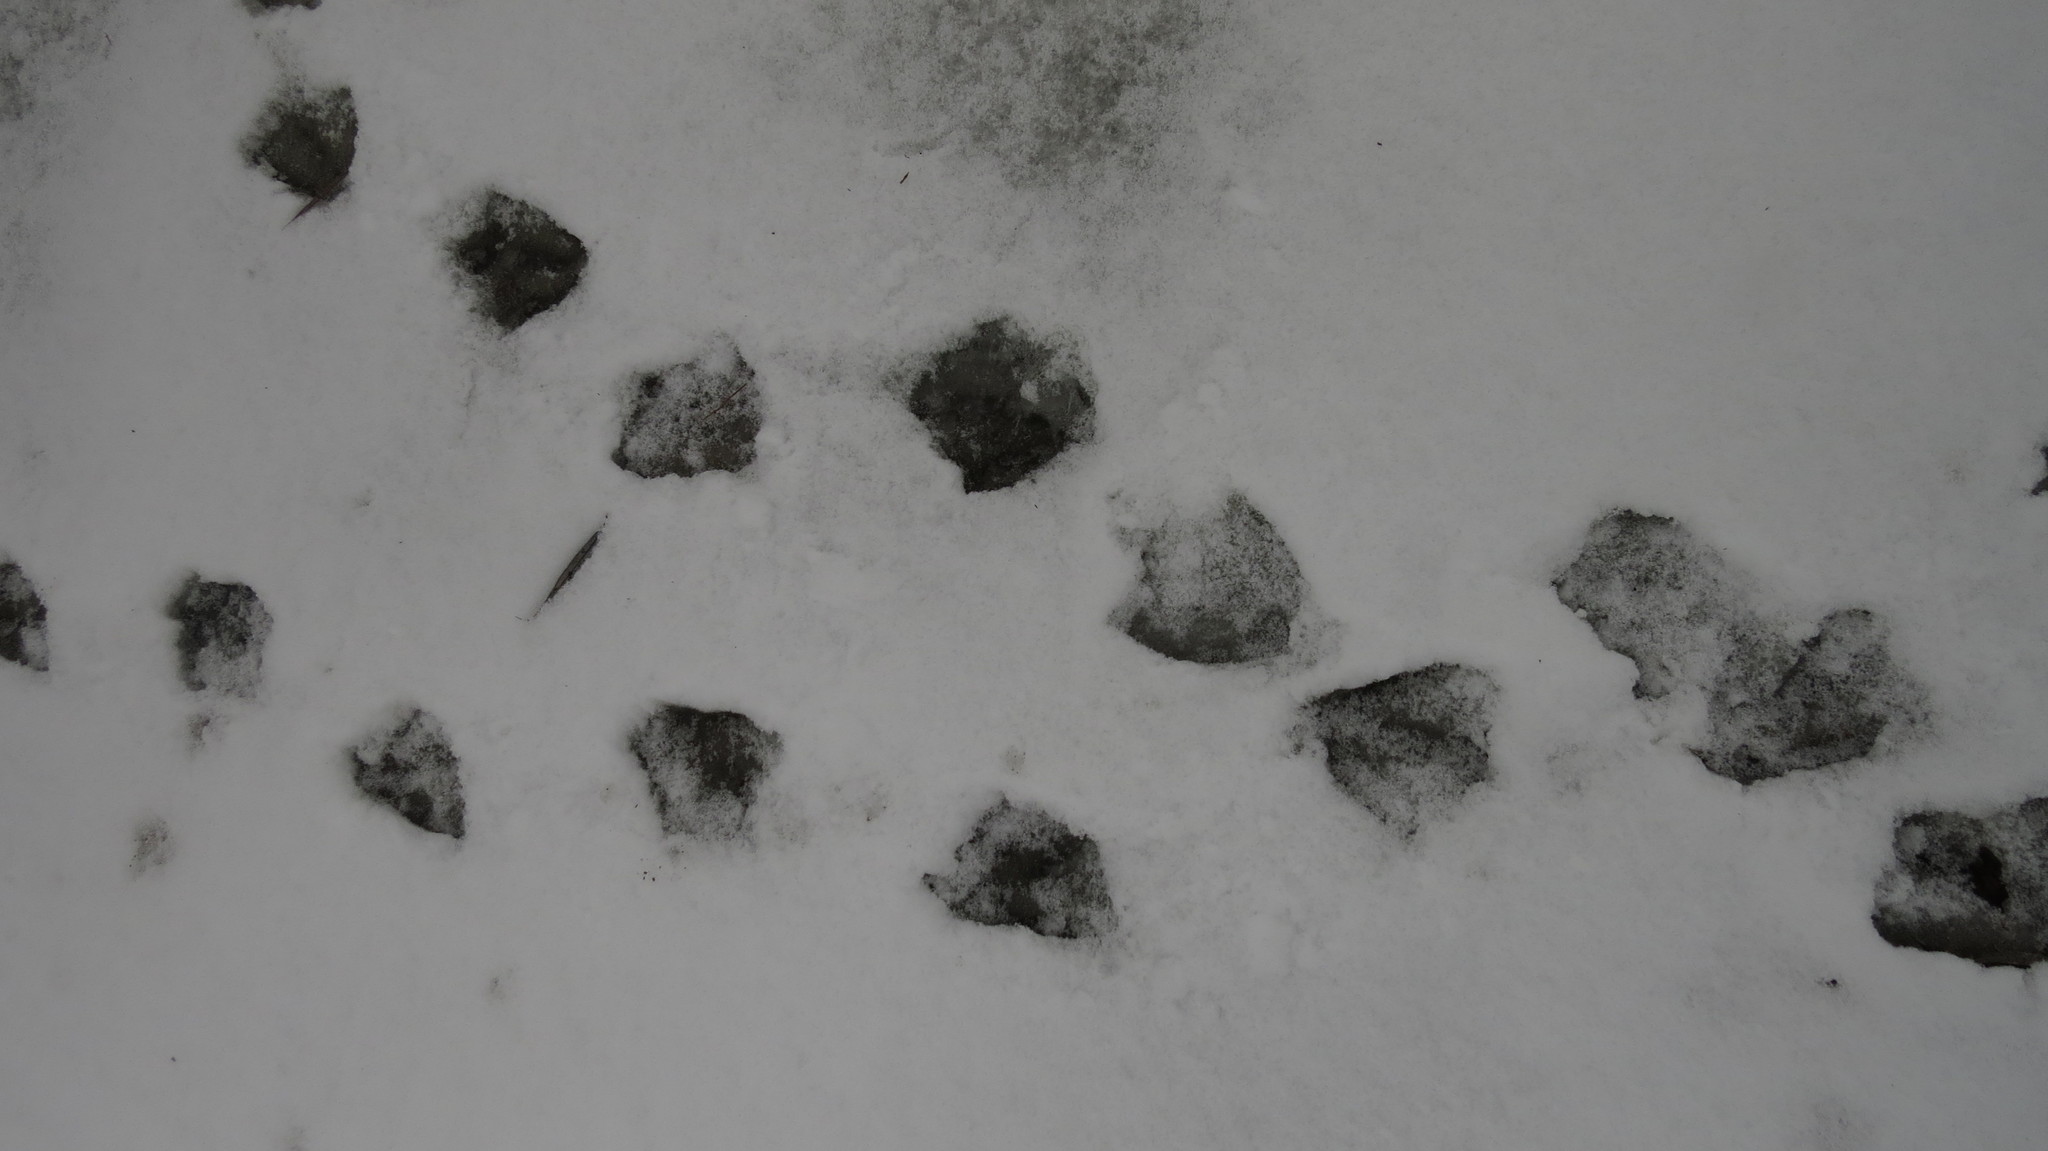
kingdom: Animalia
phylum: Chordata
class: Aves
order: Anseriformes
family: Anatidae
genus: Branta
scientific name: Branta canadensis
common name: Canada goose
